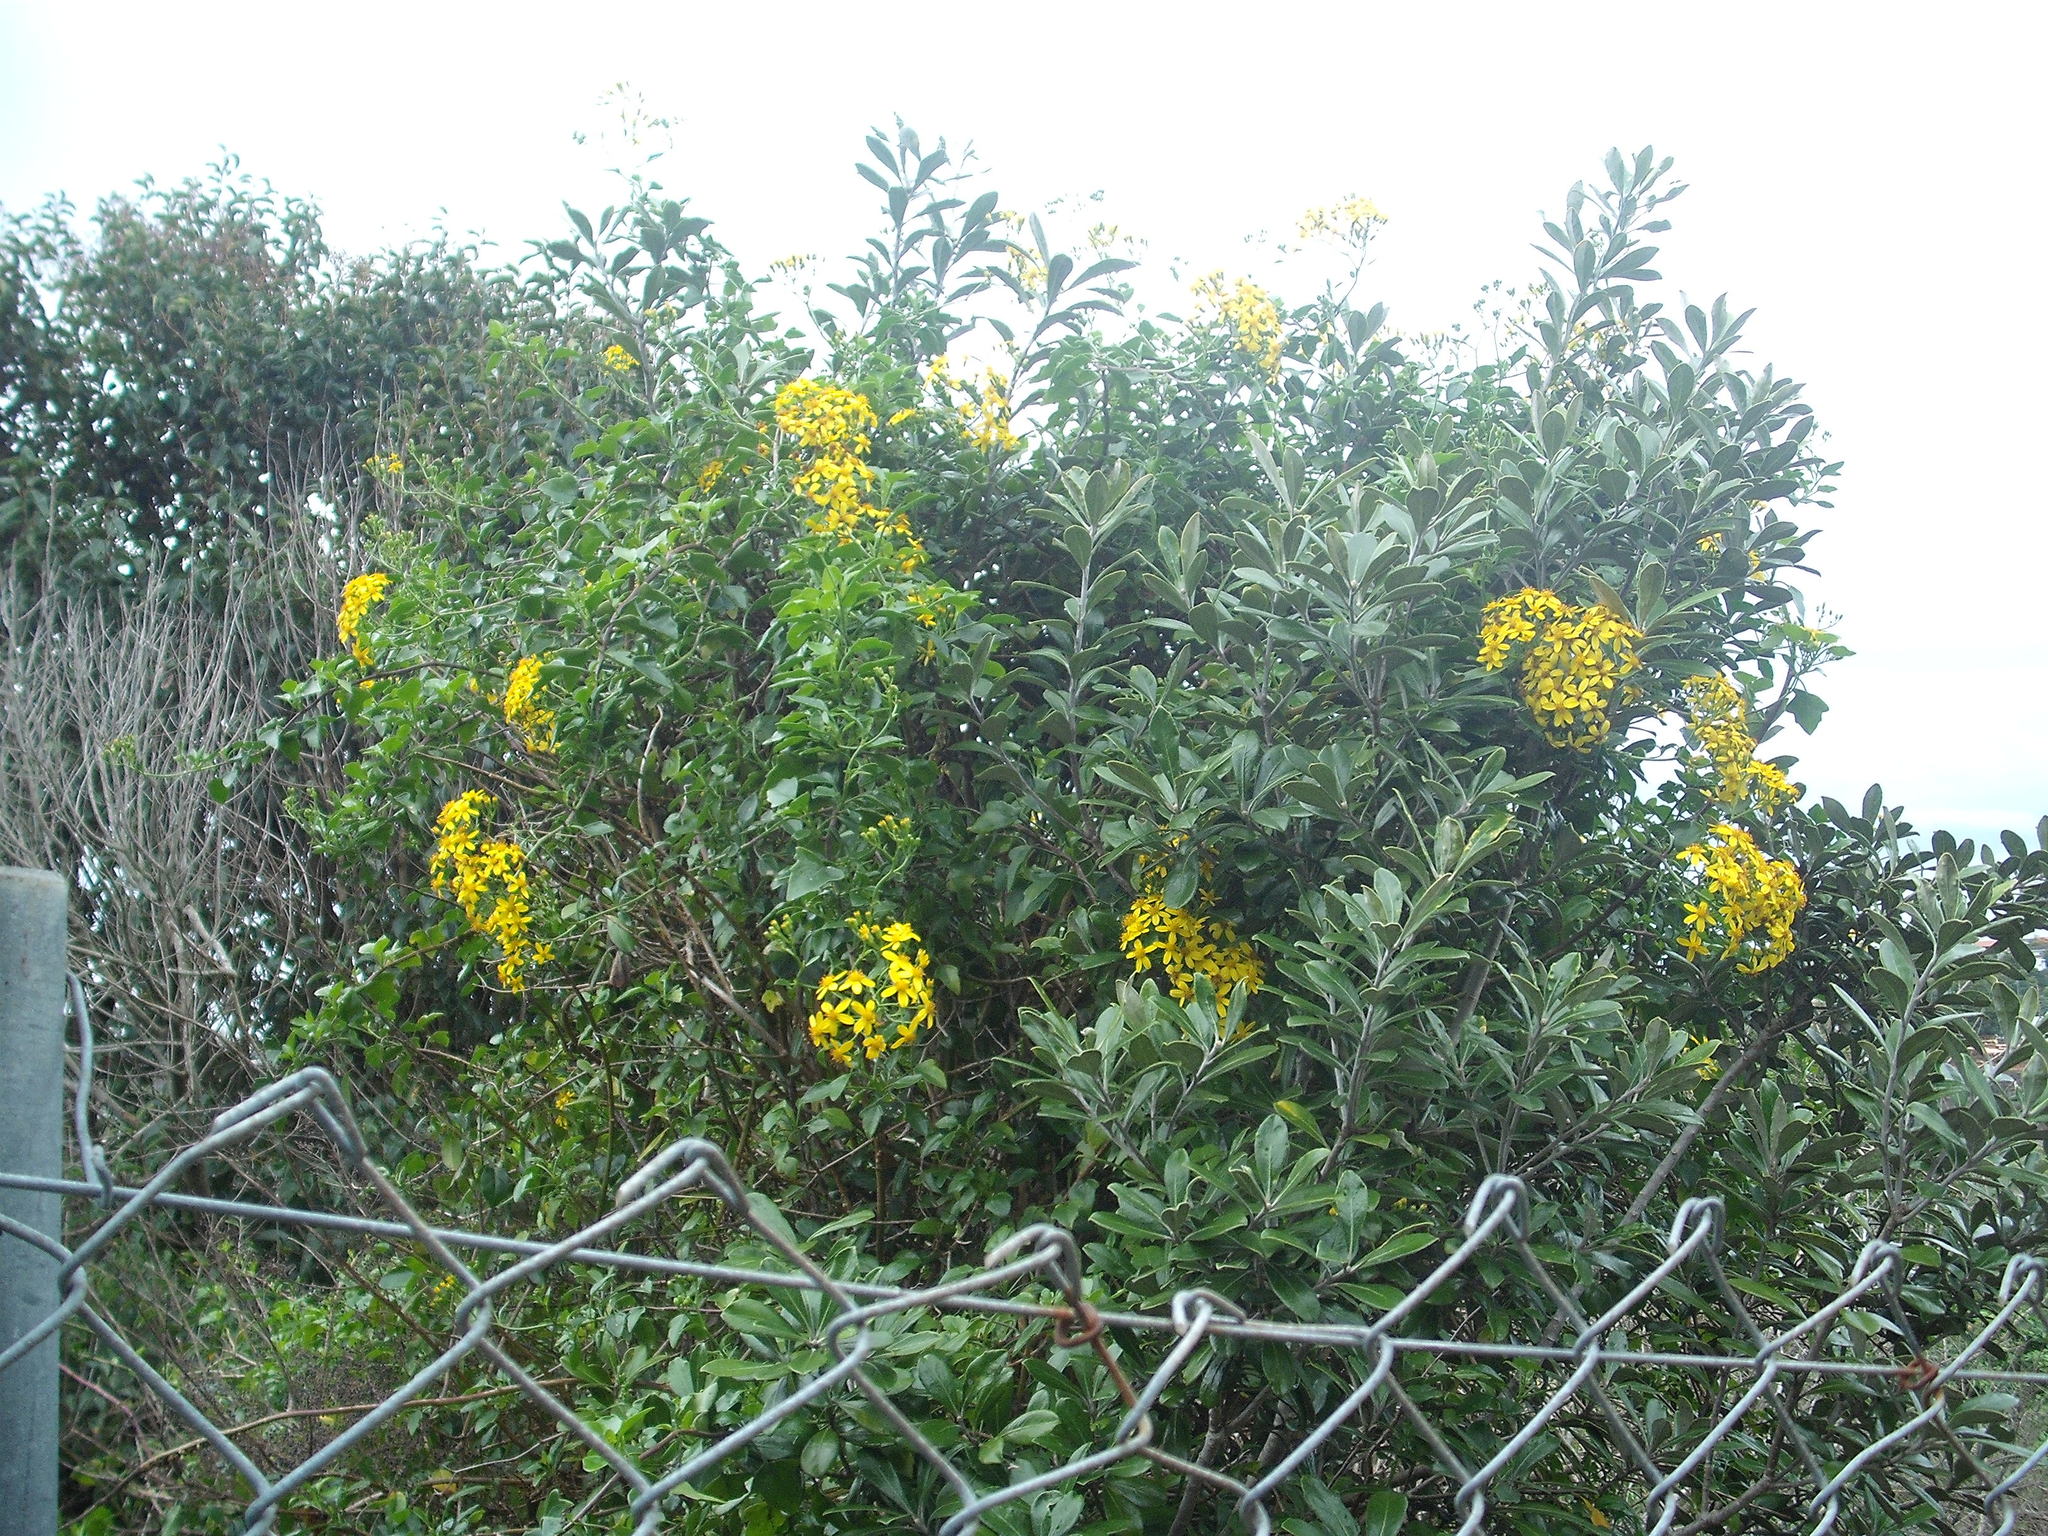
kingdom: Plantae
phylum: Tracheophyta
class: Magnoliopsida
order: Asterales
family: Asteraceae
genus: Senecio
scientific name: Senecio angulatus
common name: Climbing groundsel
